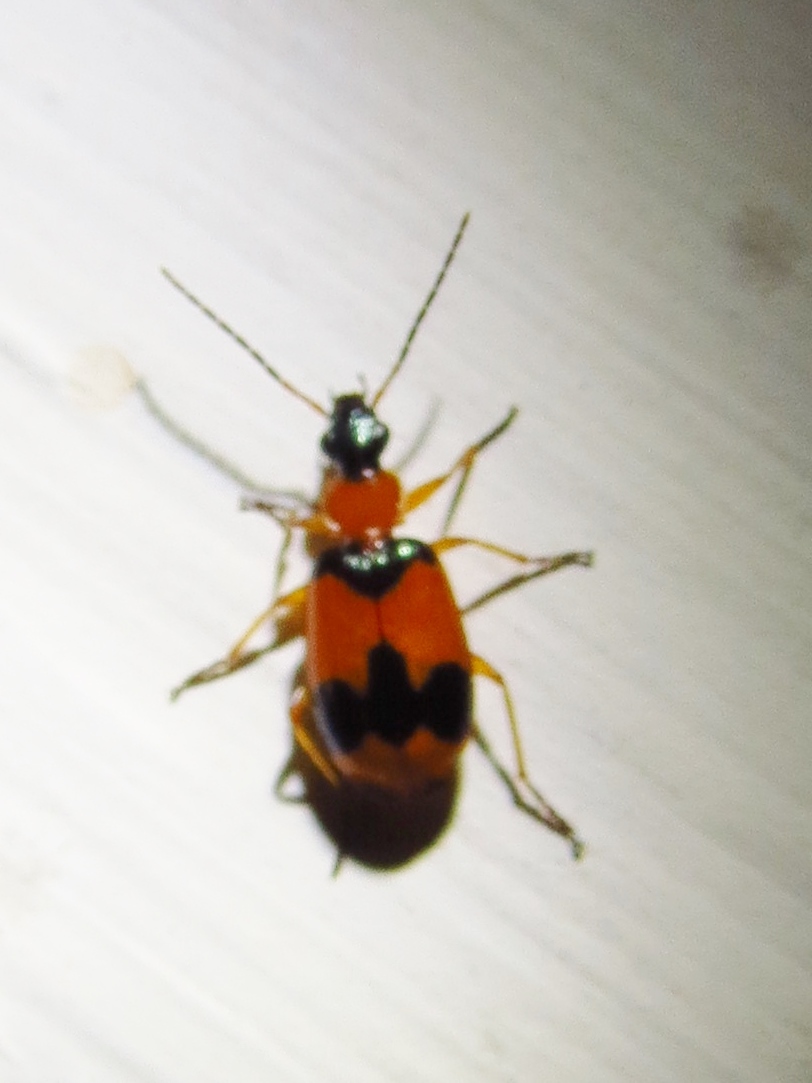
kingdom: Animalia
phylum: Arthropoda
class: Insecta
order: Coleoptera
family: Carabidae
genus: Lebia
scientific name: Lebia pulchella
